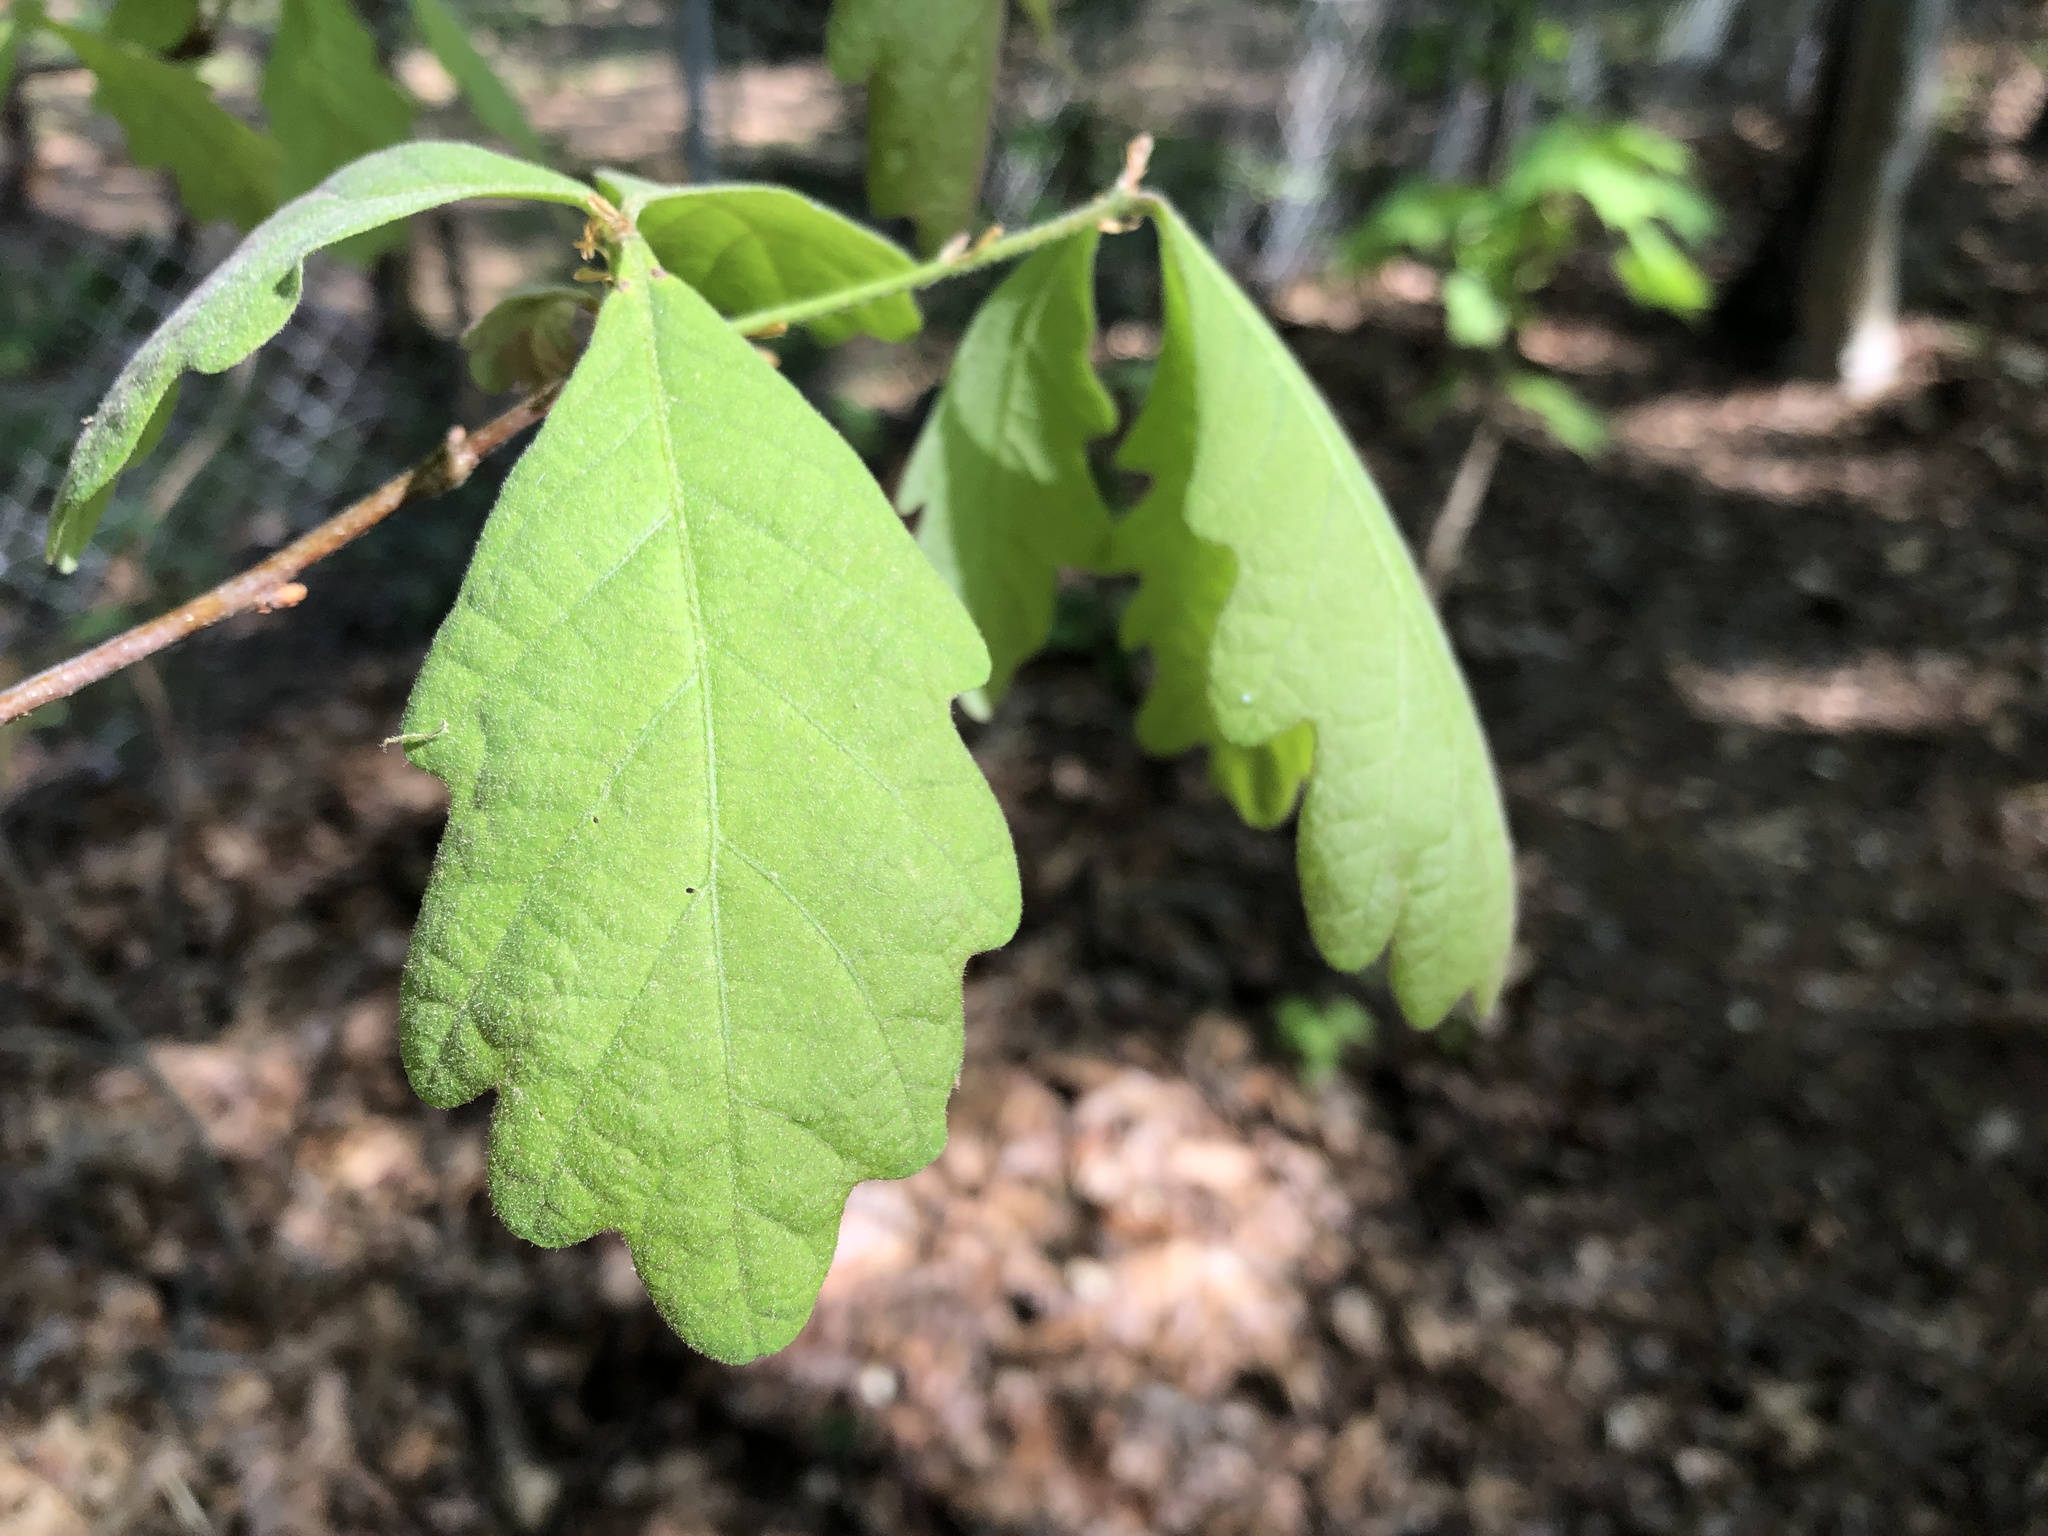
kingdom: Plantae
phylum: Tracheophyta
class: Magnoliopsida
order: Fagales
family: Fagaceae
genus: Quercus
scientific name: Quercus alba
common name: White oak
